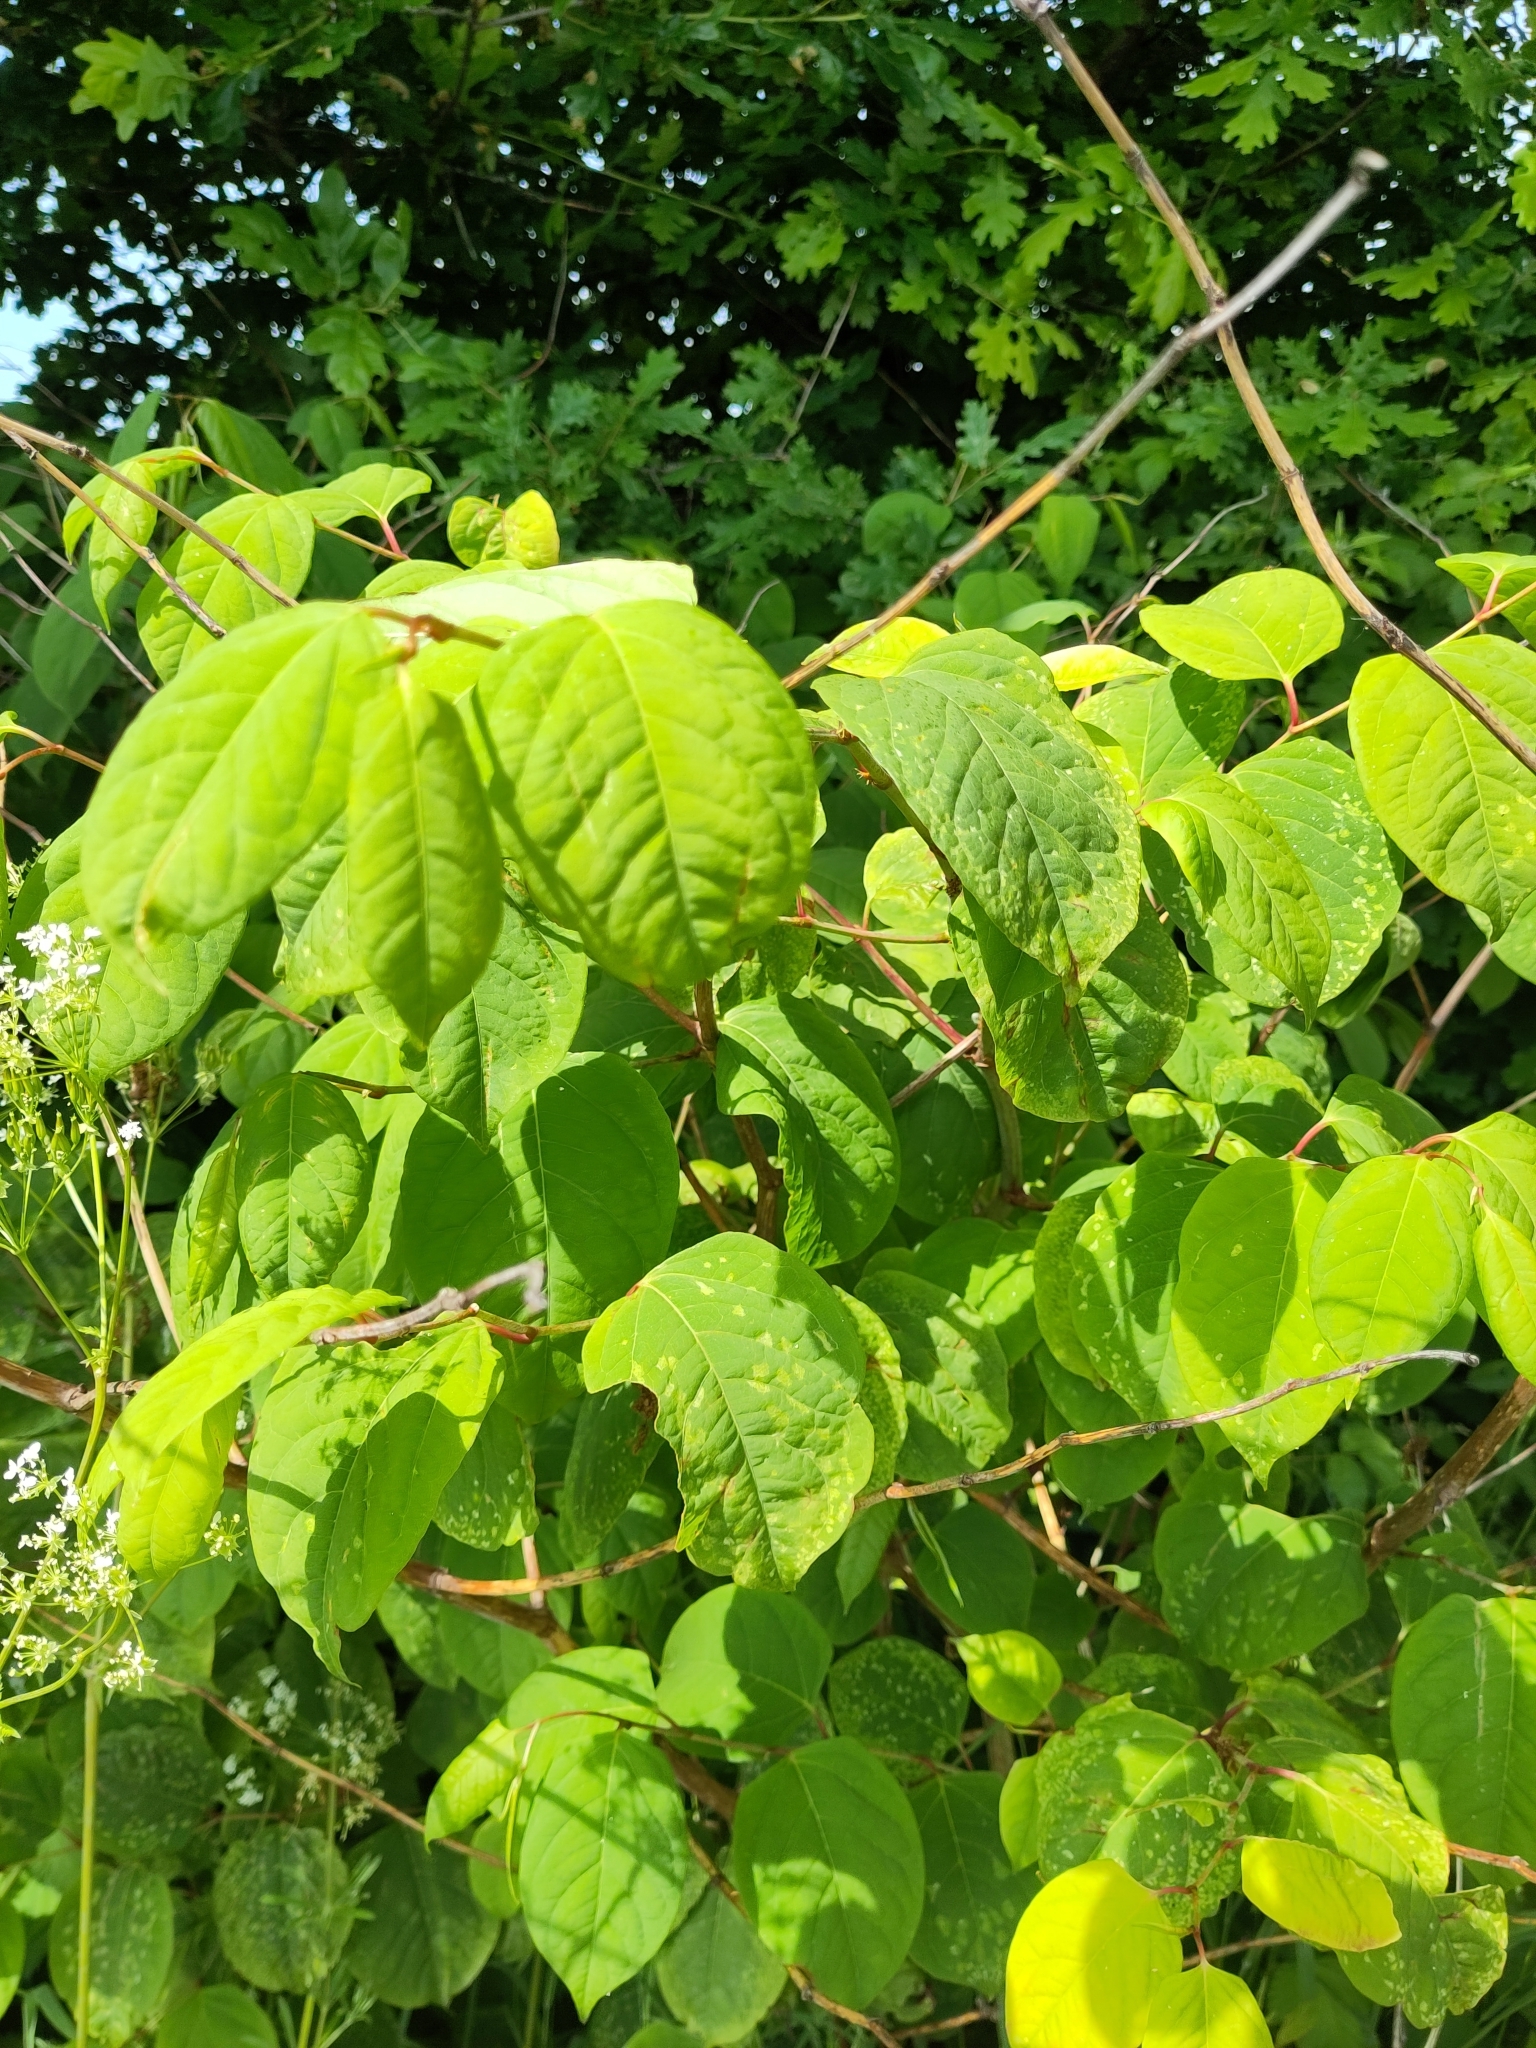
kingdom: Plantae
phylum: Tracheophyta
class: Magnoliopsida
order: Caryophyllales
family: Polygonaceae
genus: Reynoutria
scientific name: Reynoutria japonica
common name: Japanese knotweed
